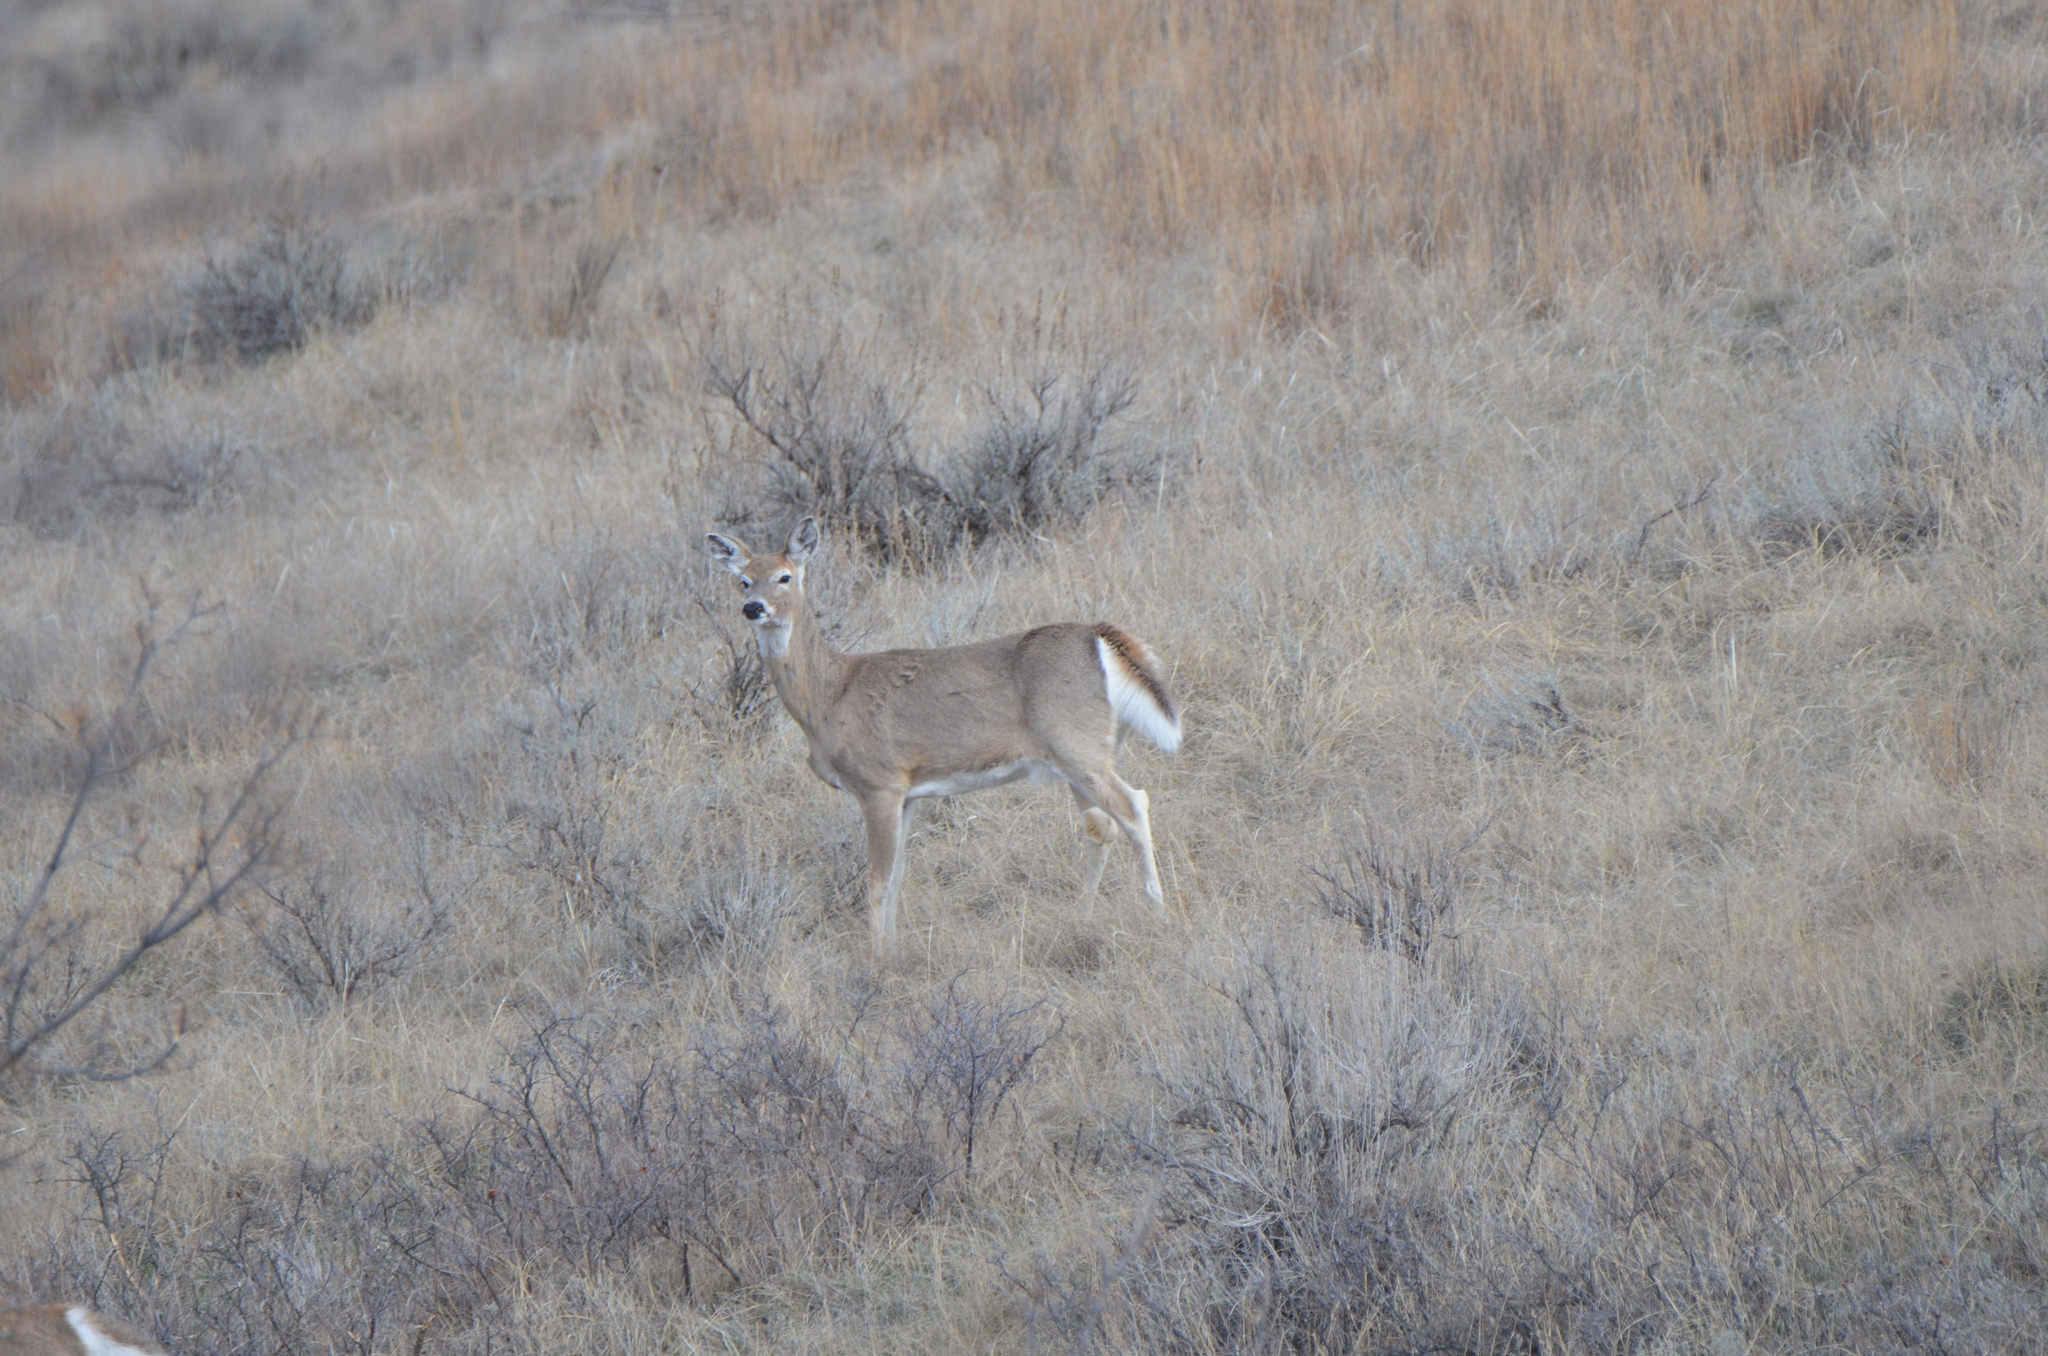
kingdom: Animalia
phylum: Chordata
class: Mammalia
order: Artiodactyla
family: Cervidae
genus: Odocoileus
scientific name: Odocoileus virginianus
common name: White-tailed deer
